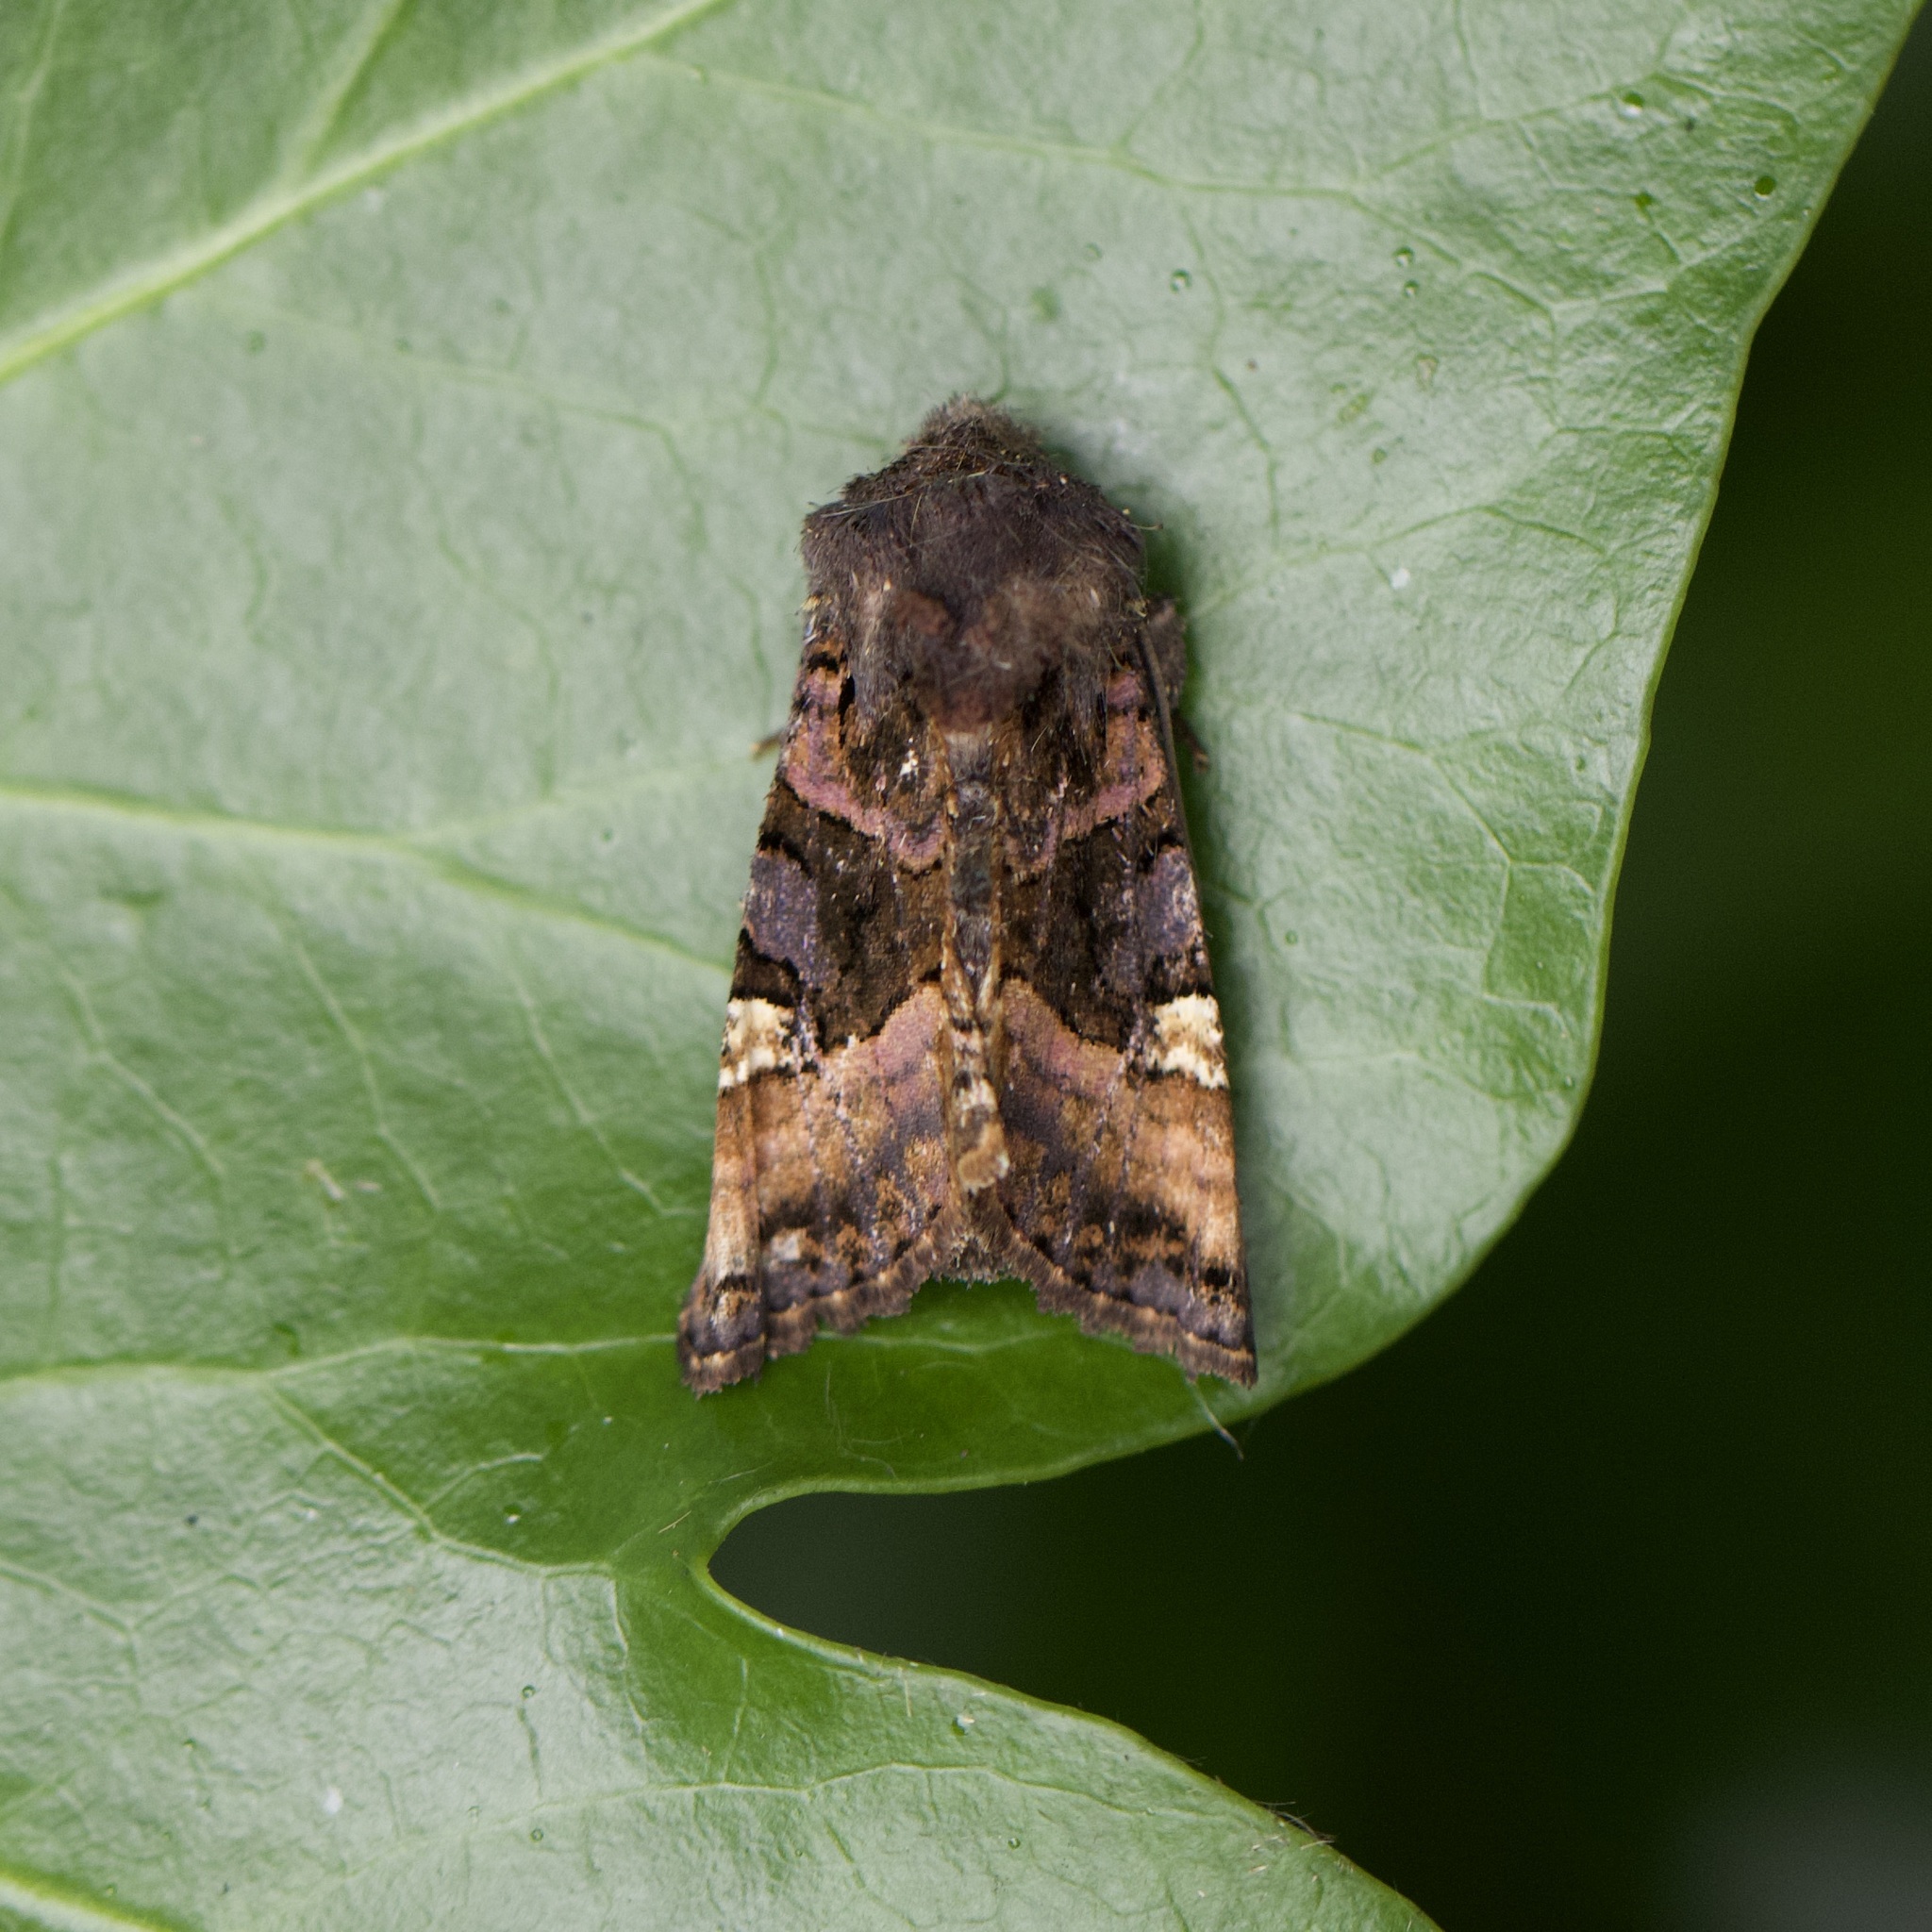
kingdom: Animalia
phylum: Arthropoda
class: Insecta
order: Lepidoptera
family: Noctuidae
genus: Euplexia
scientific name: Euplexia lucipara
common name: Small angle shades
